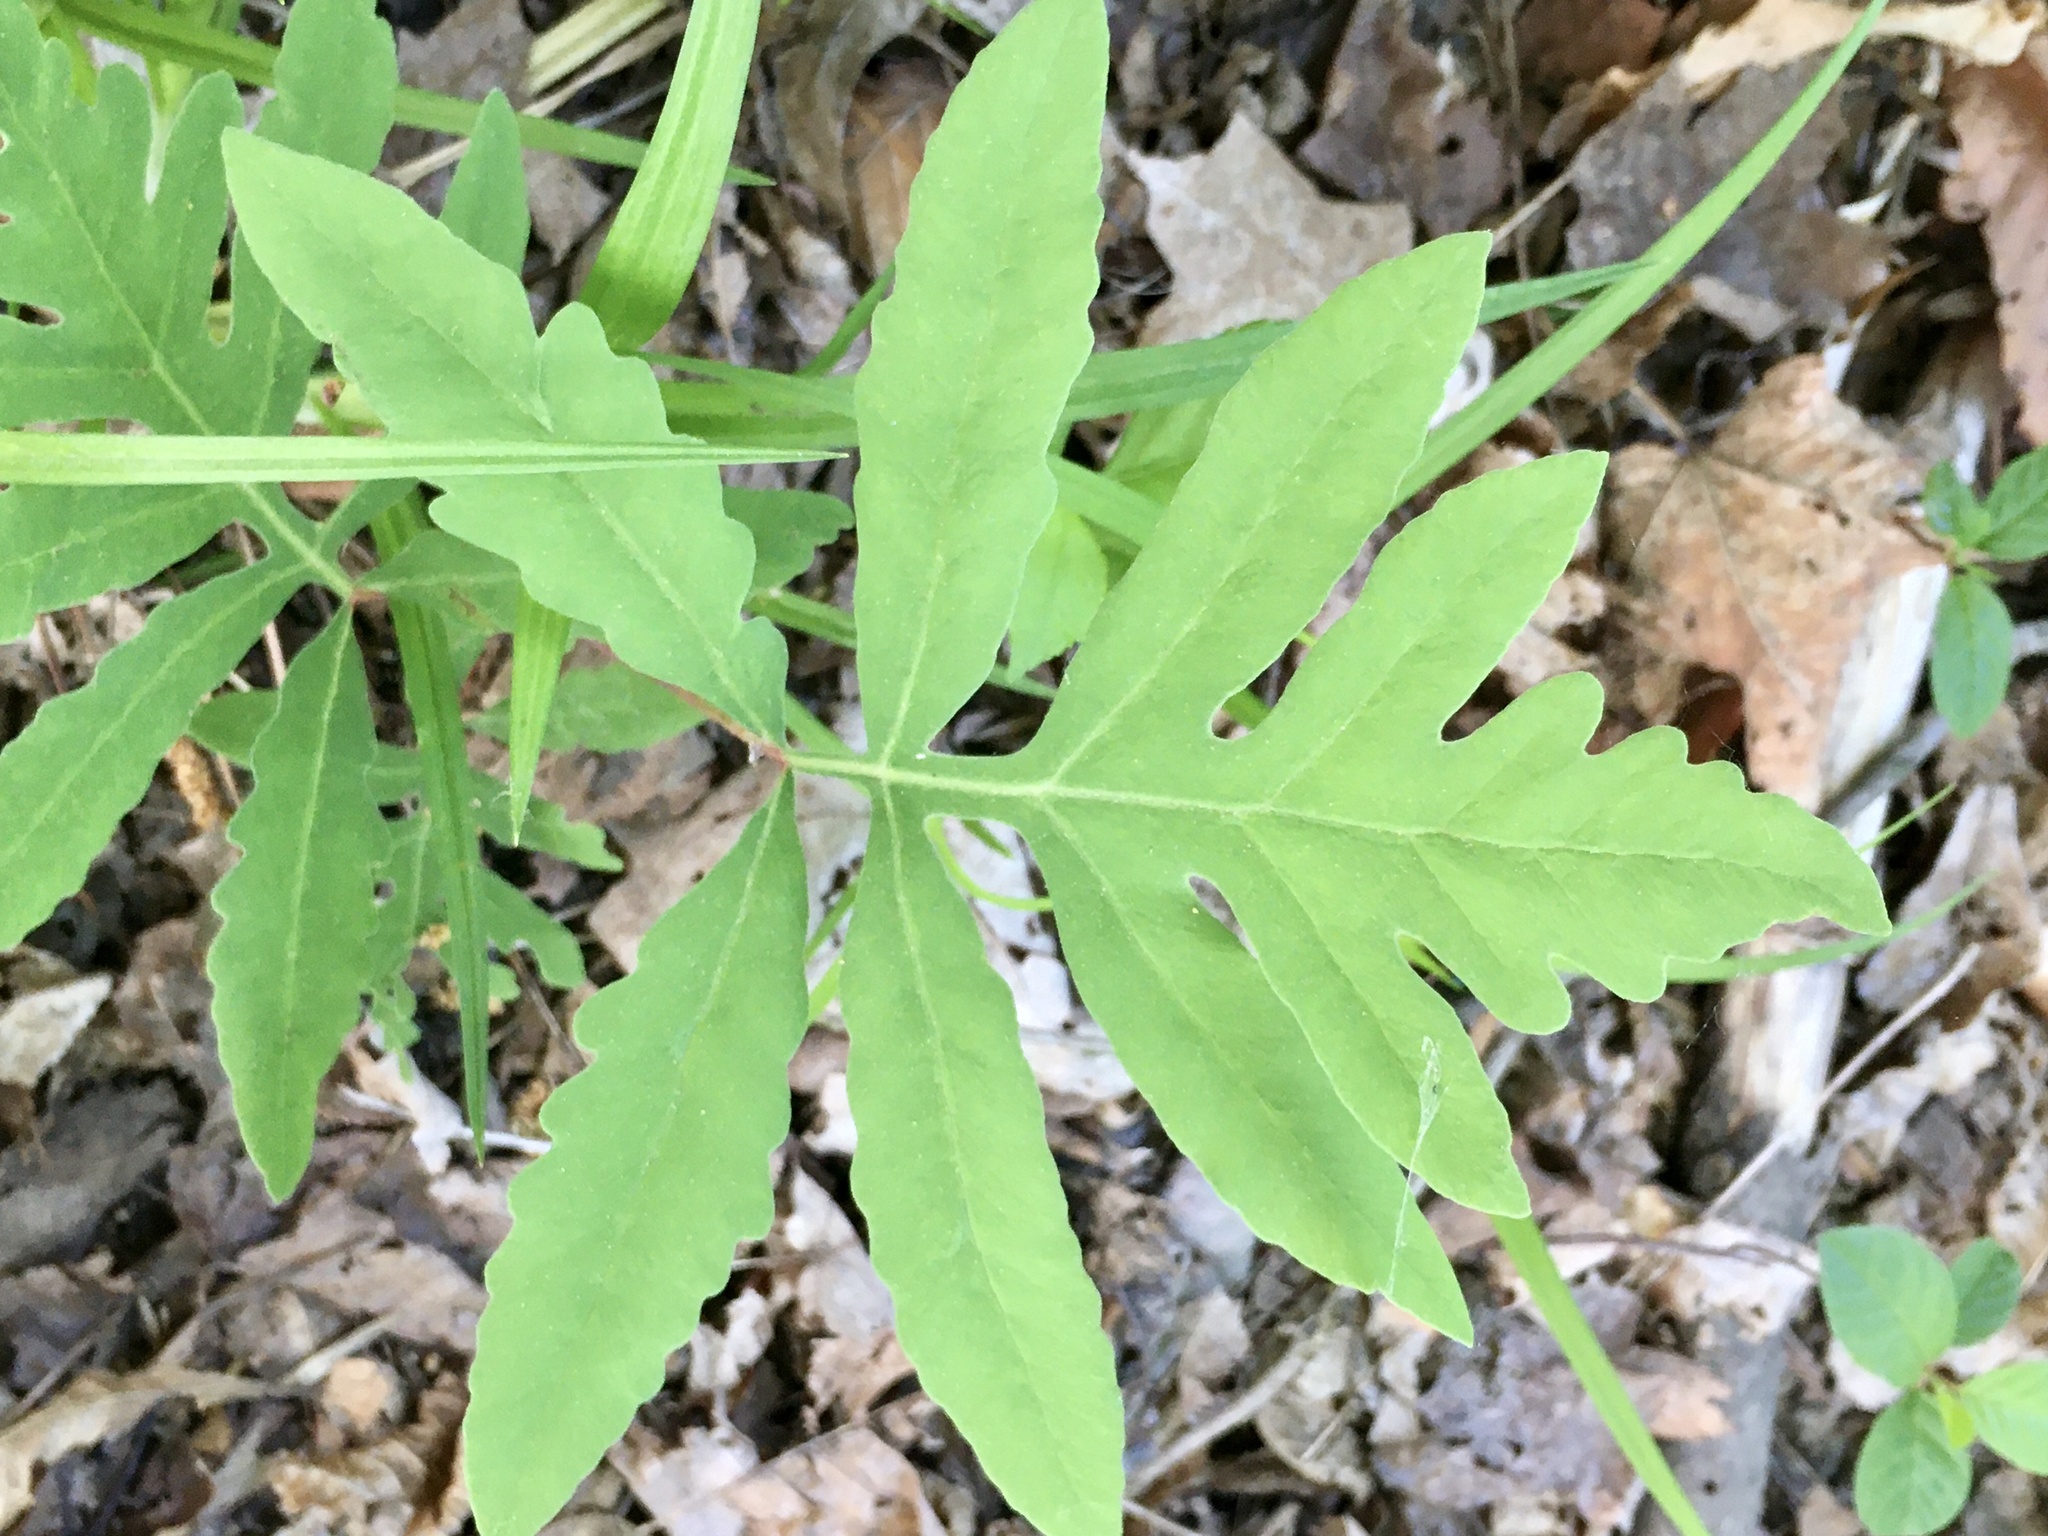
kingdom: Plantae
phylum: Tracheophyta
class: Polypodiopsida
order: Polypodiales
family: Onocleaceae
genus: Onoclea
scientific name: Onoclea sensibilis
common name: Sensitive fern
